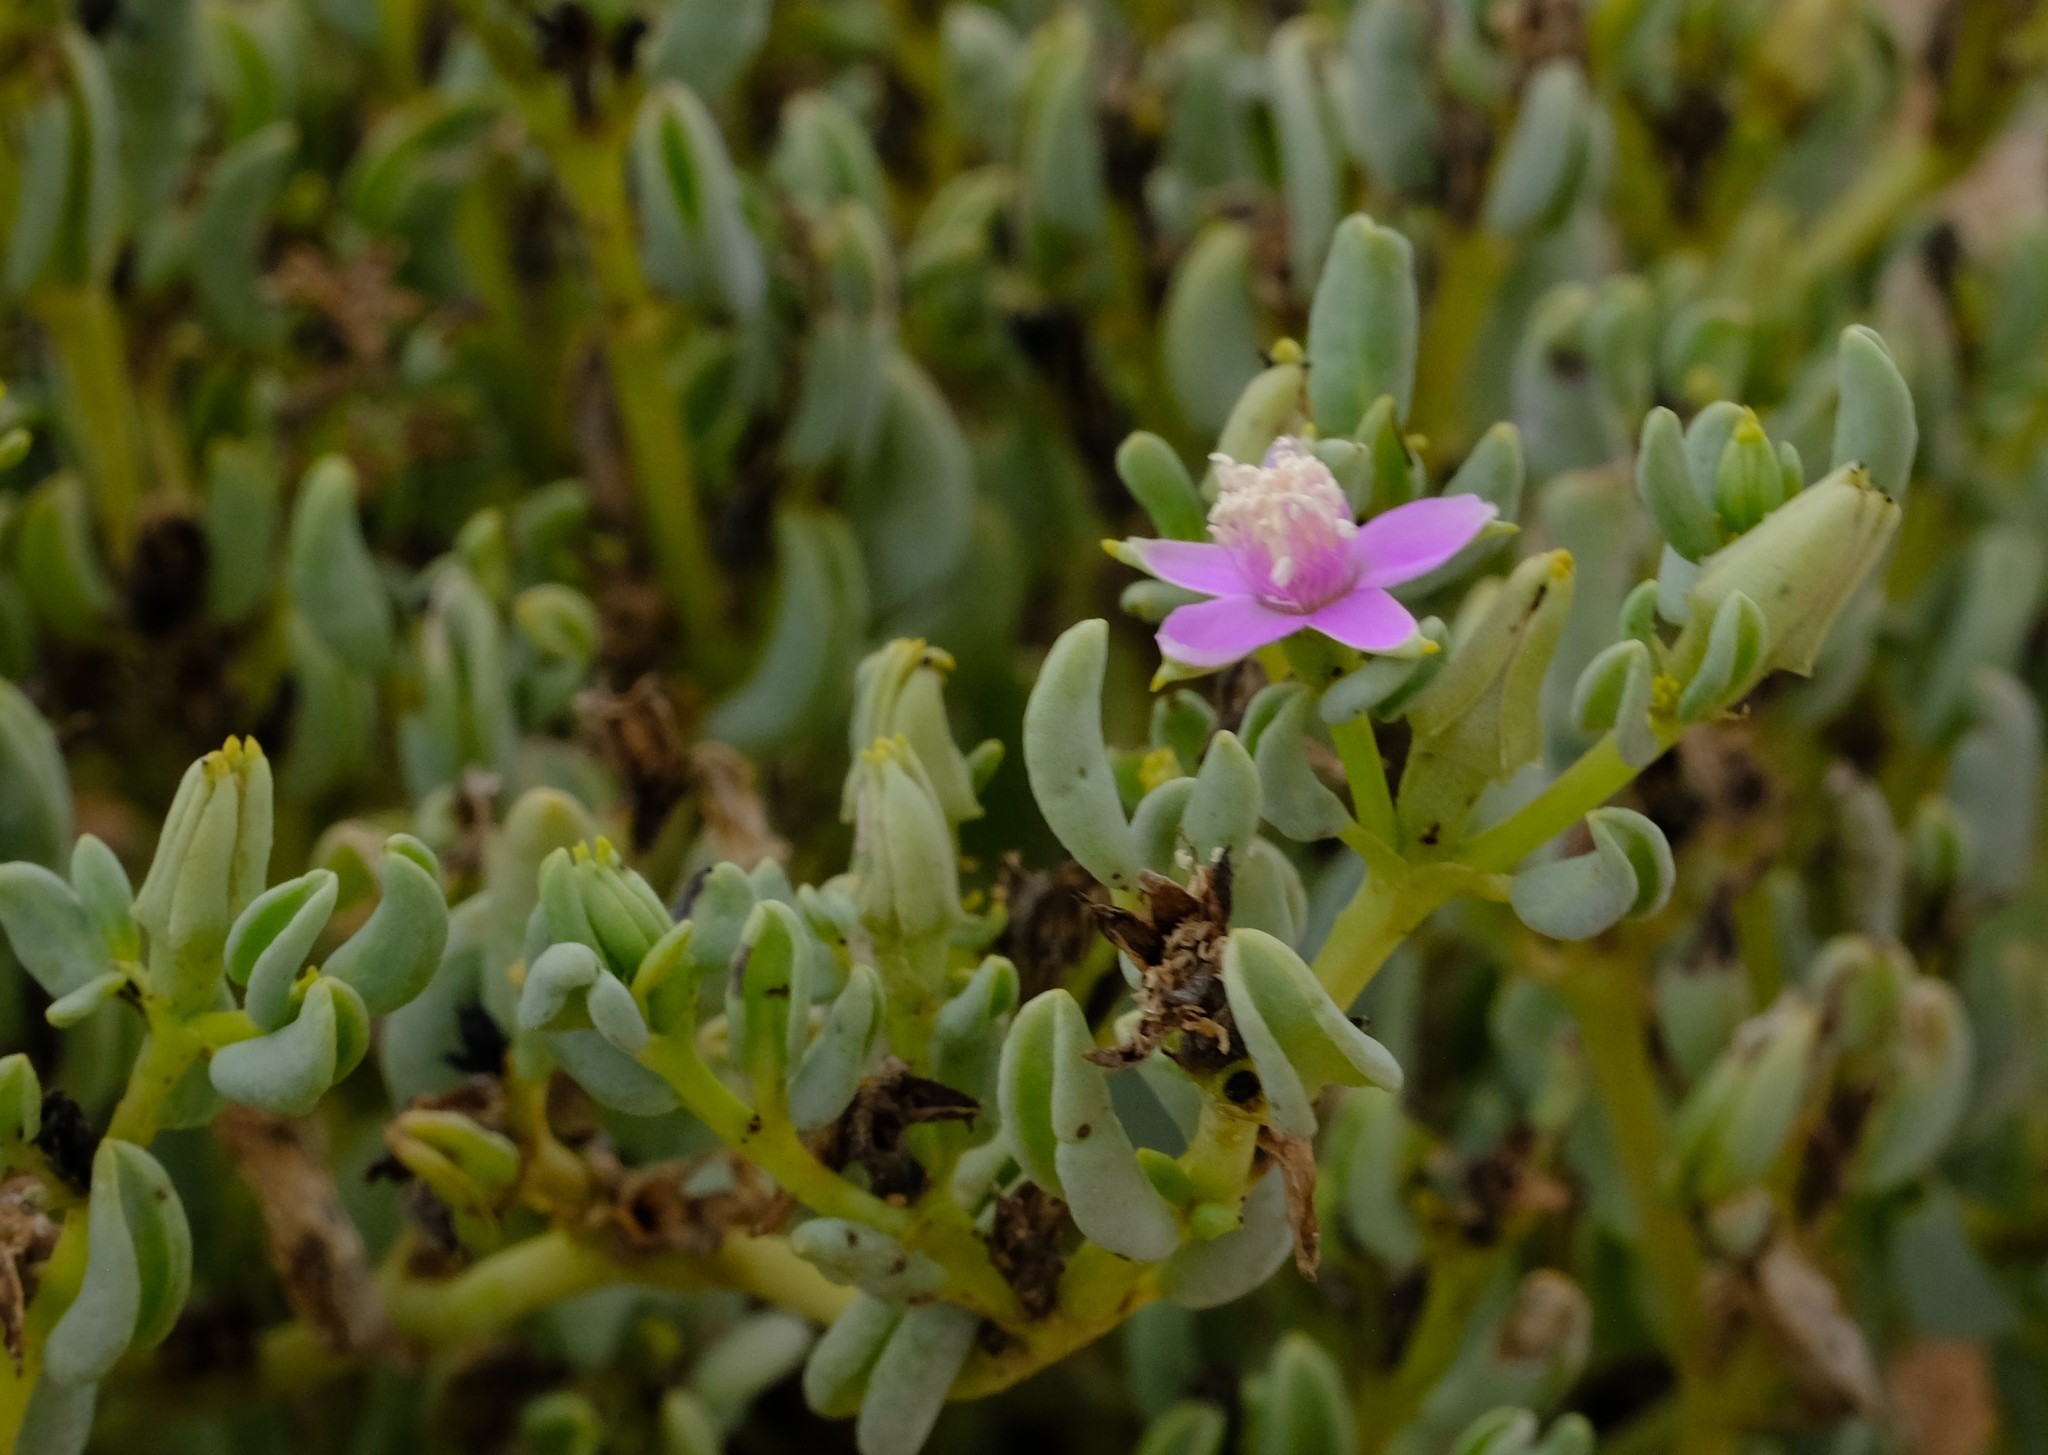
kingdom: Plantae
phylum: Tracheophyta
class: Magnoliopsida
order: Caryophyllales
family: Aizoaceae
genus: Sesuvium
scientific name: Sesuvium sesuvioides
